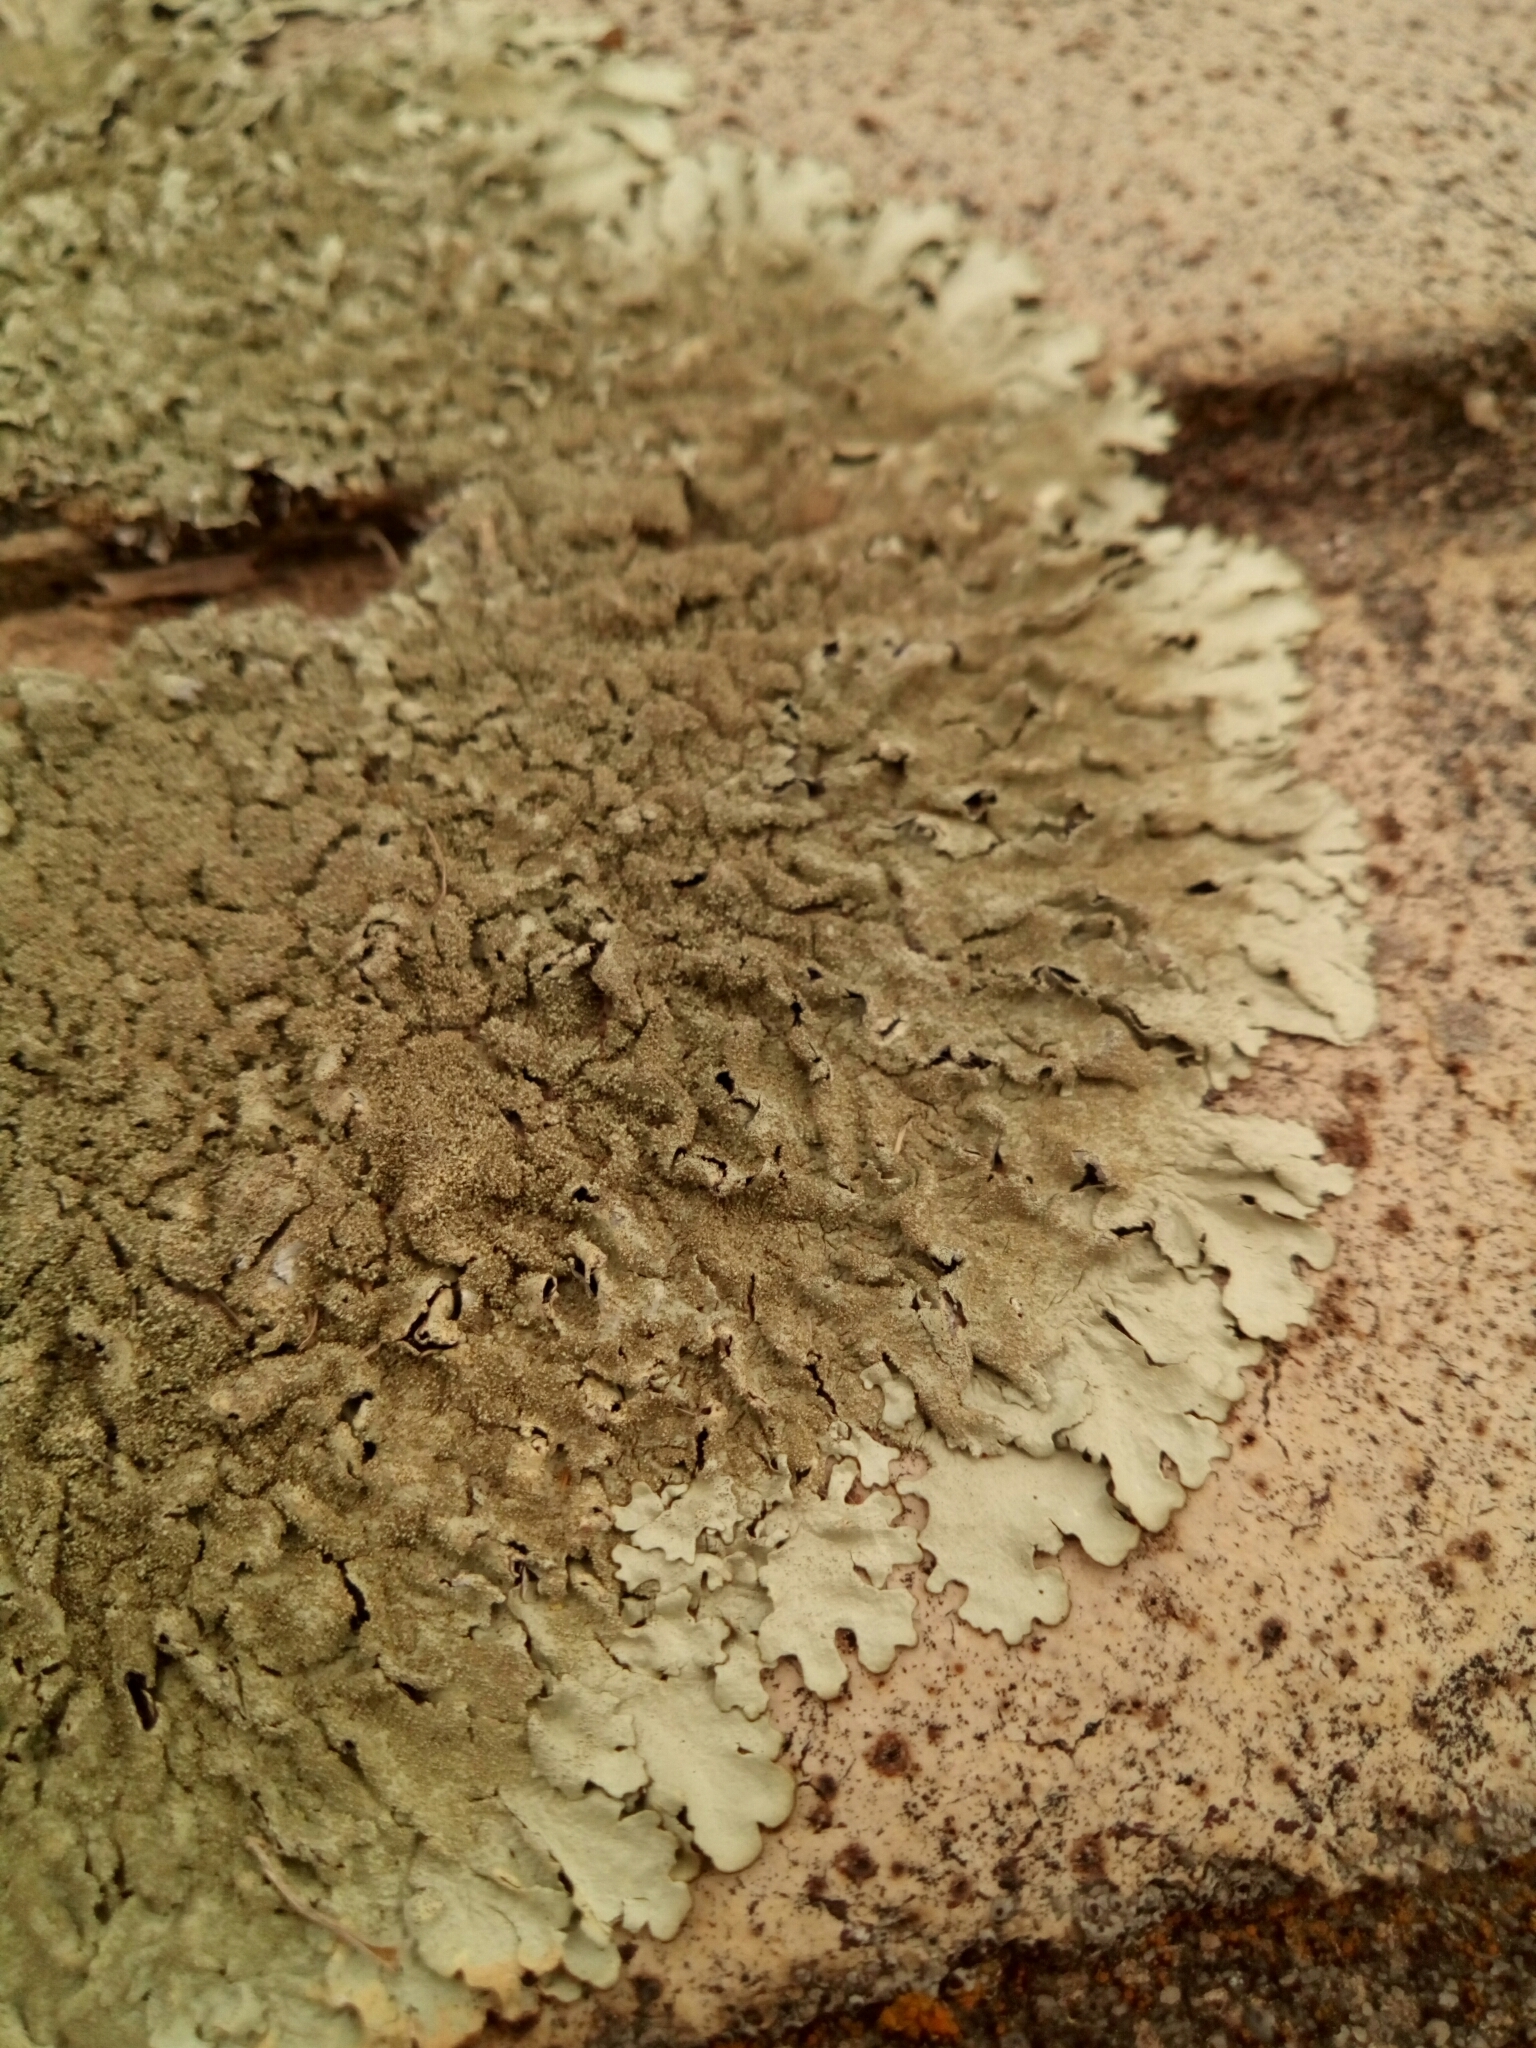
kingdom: Fungi
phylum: Ascomycota
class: Lecanoromycetes
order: Lecanorales
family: Parmeliaceae
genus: Hypotrachyna
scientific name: Hypotrachyna minarum
